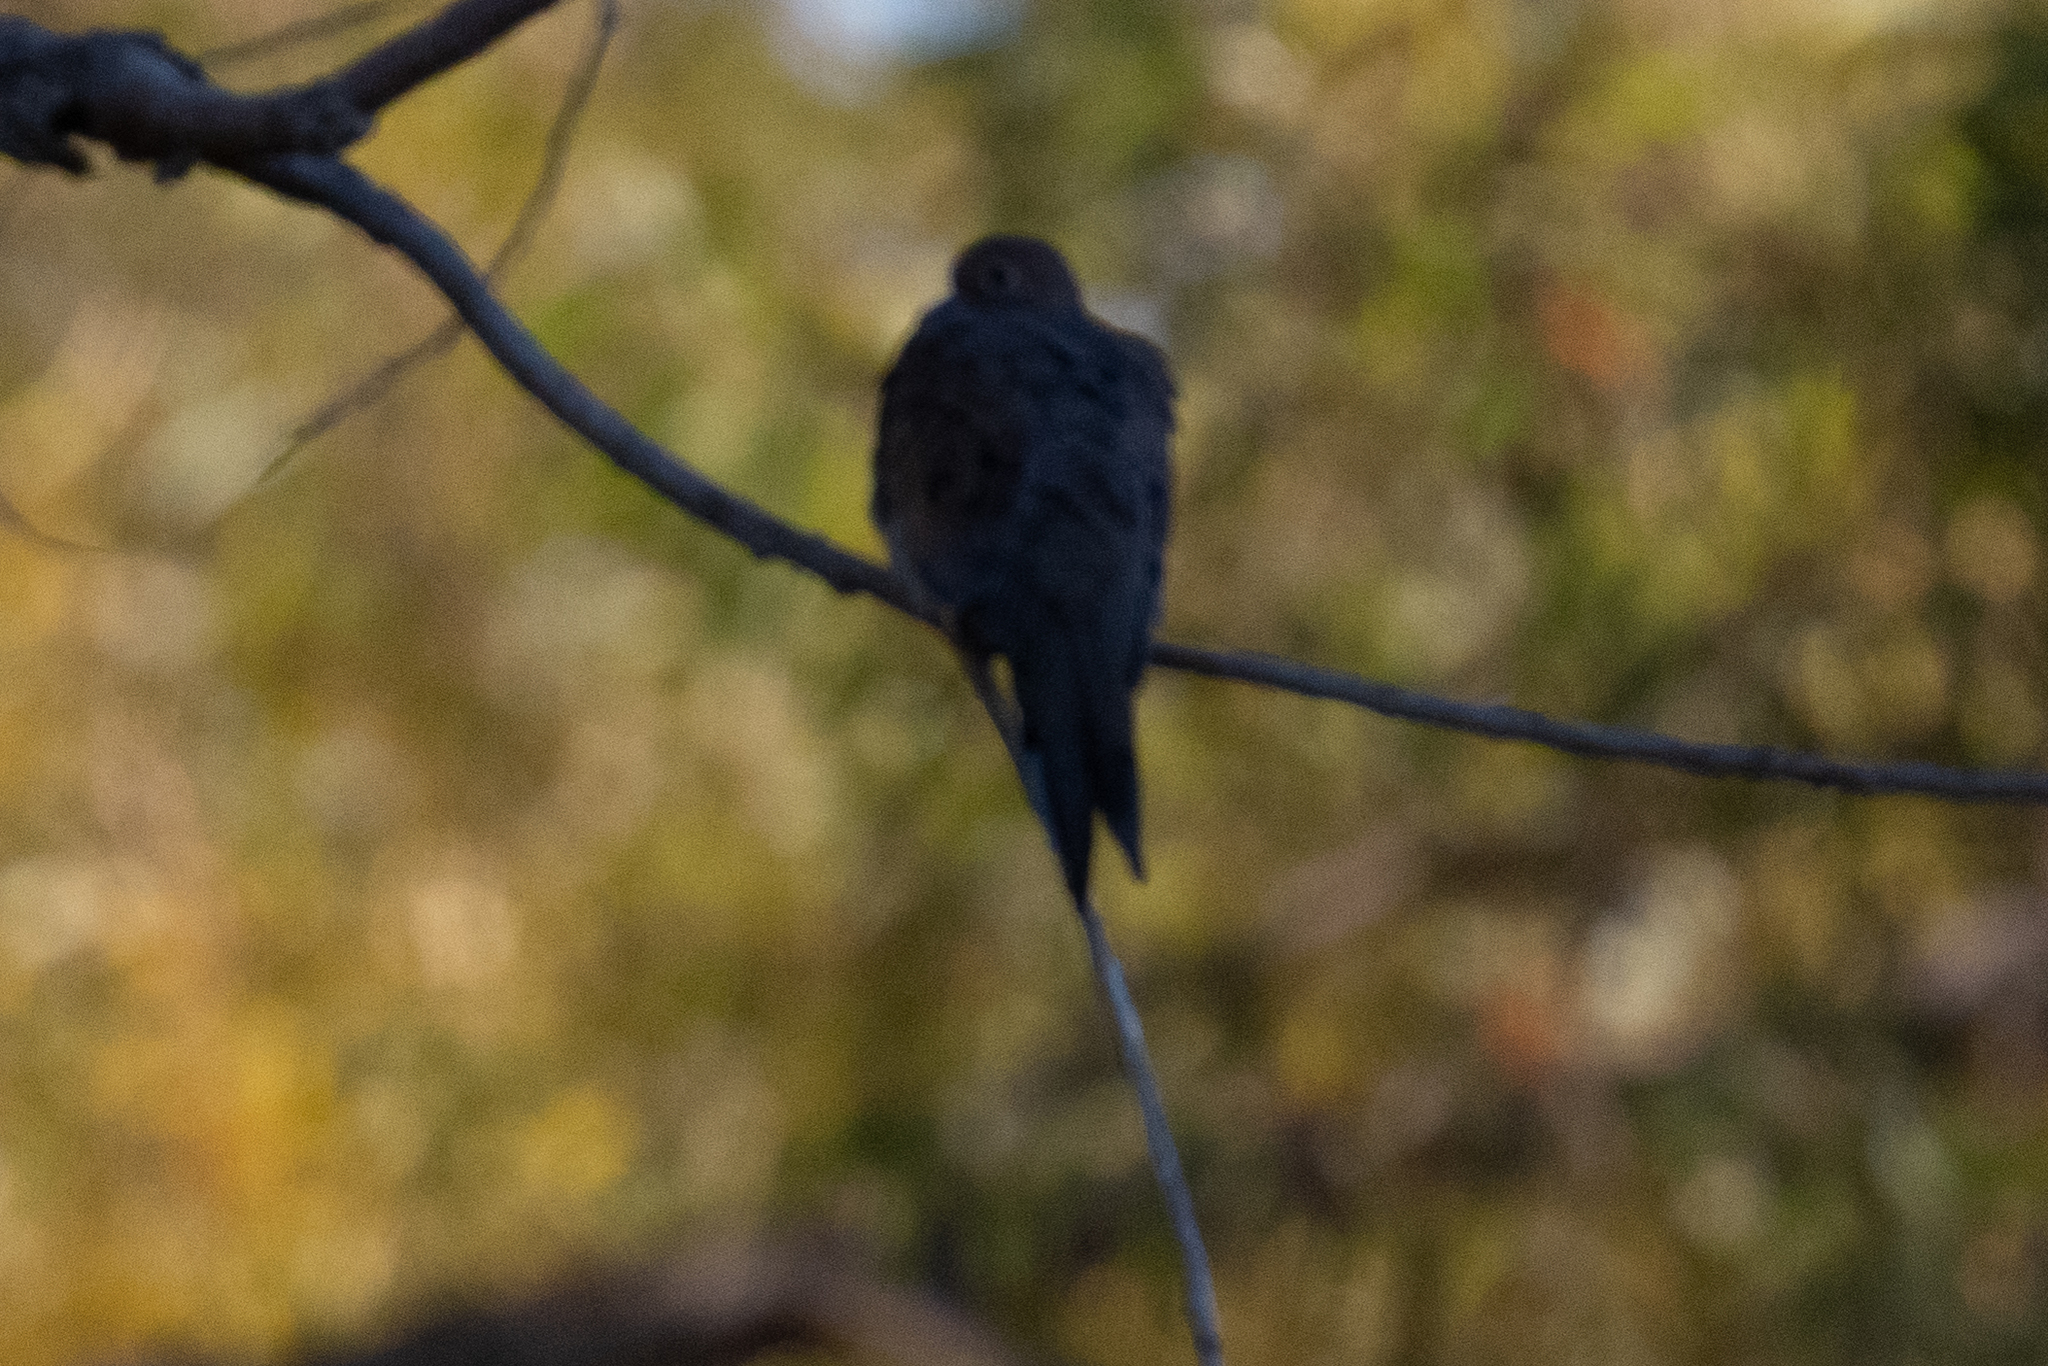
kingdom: Animalia
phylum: Chordata
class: Aves
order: Columbiformes
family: Columbidae
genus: Zenaida
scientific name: Zenaida macroura
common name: Mourning dove
